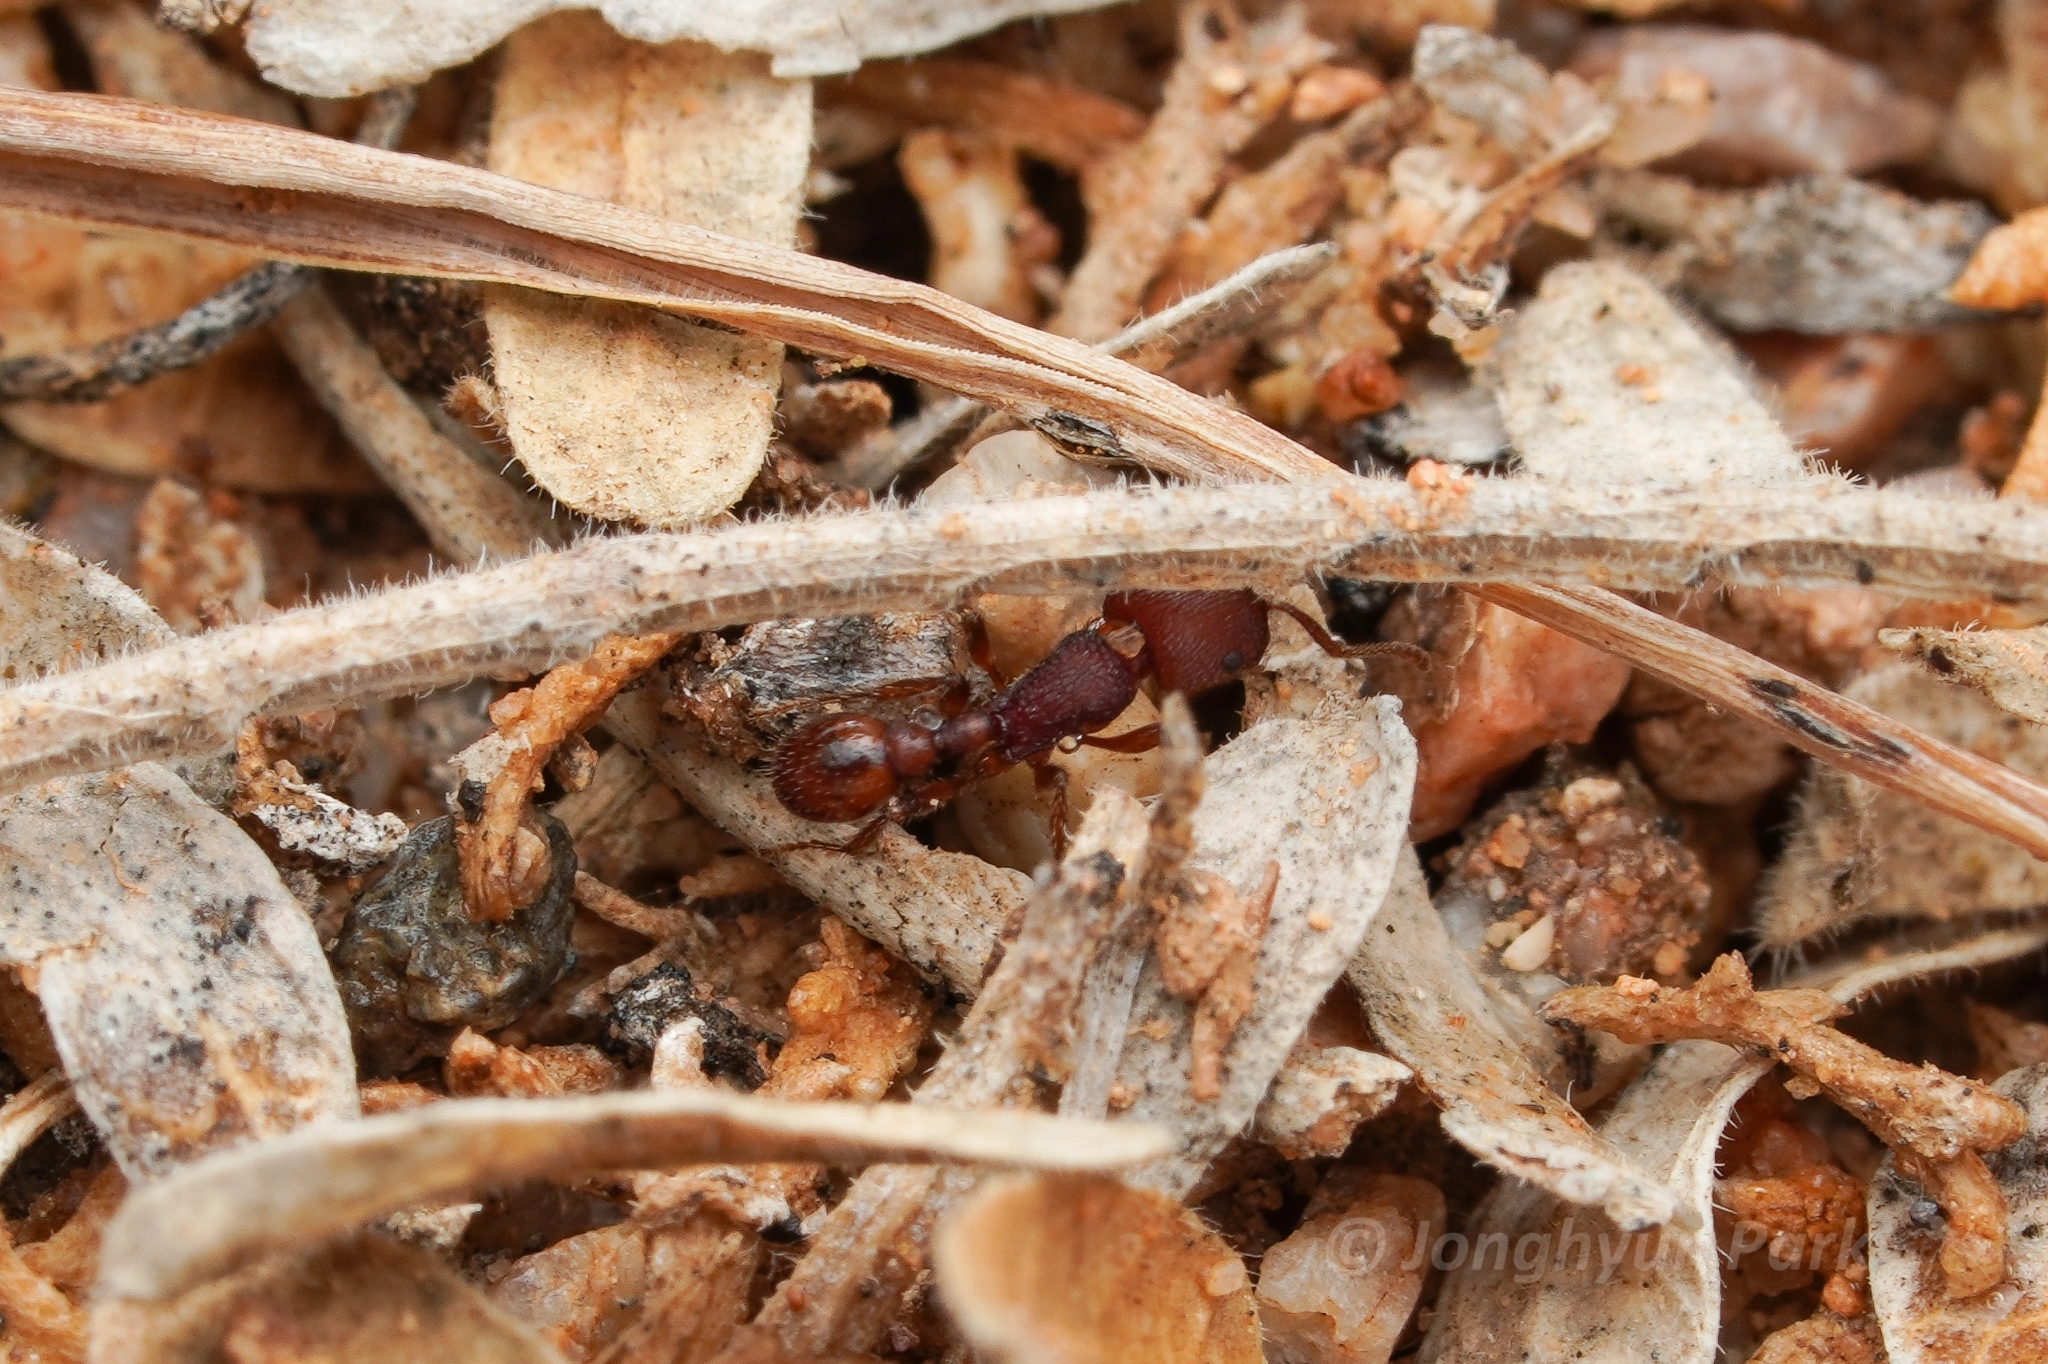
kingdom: Animalia
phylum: Arthropoda
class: Insecta
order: Hymenoptera
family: Formicidae
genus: Pogonomyrmex
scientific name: Pogonomyrmex pima
